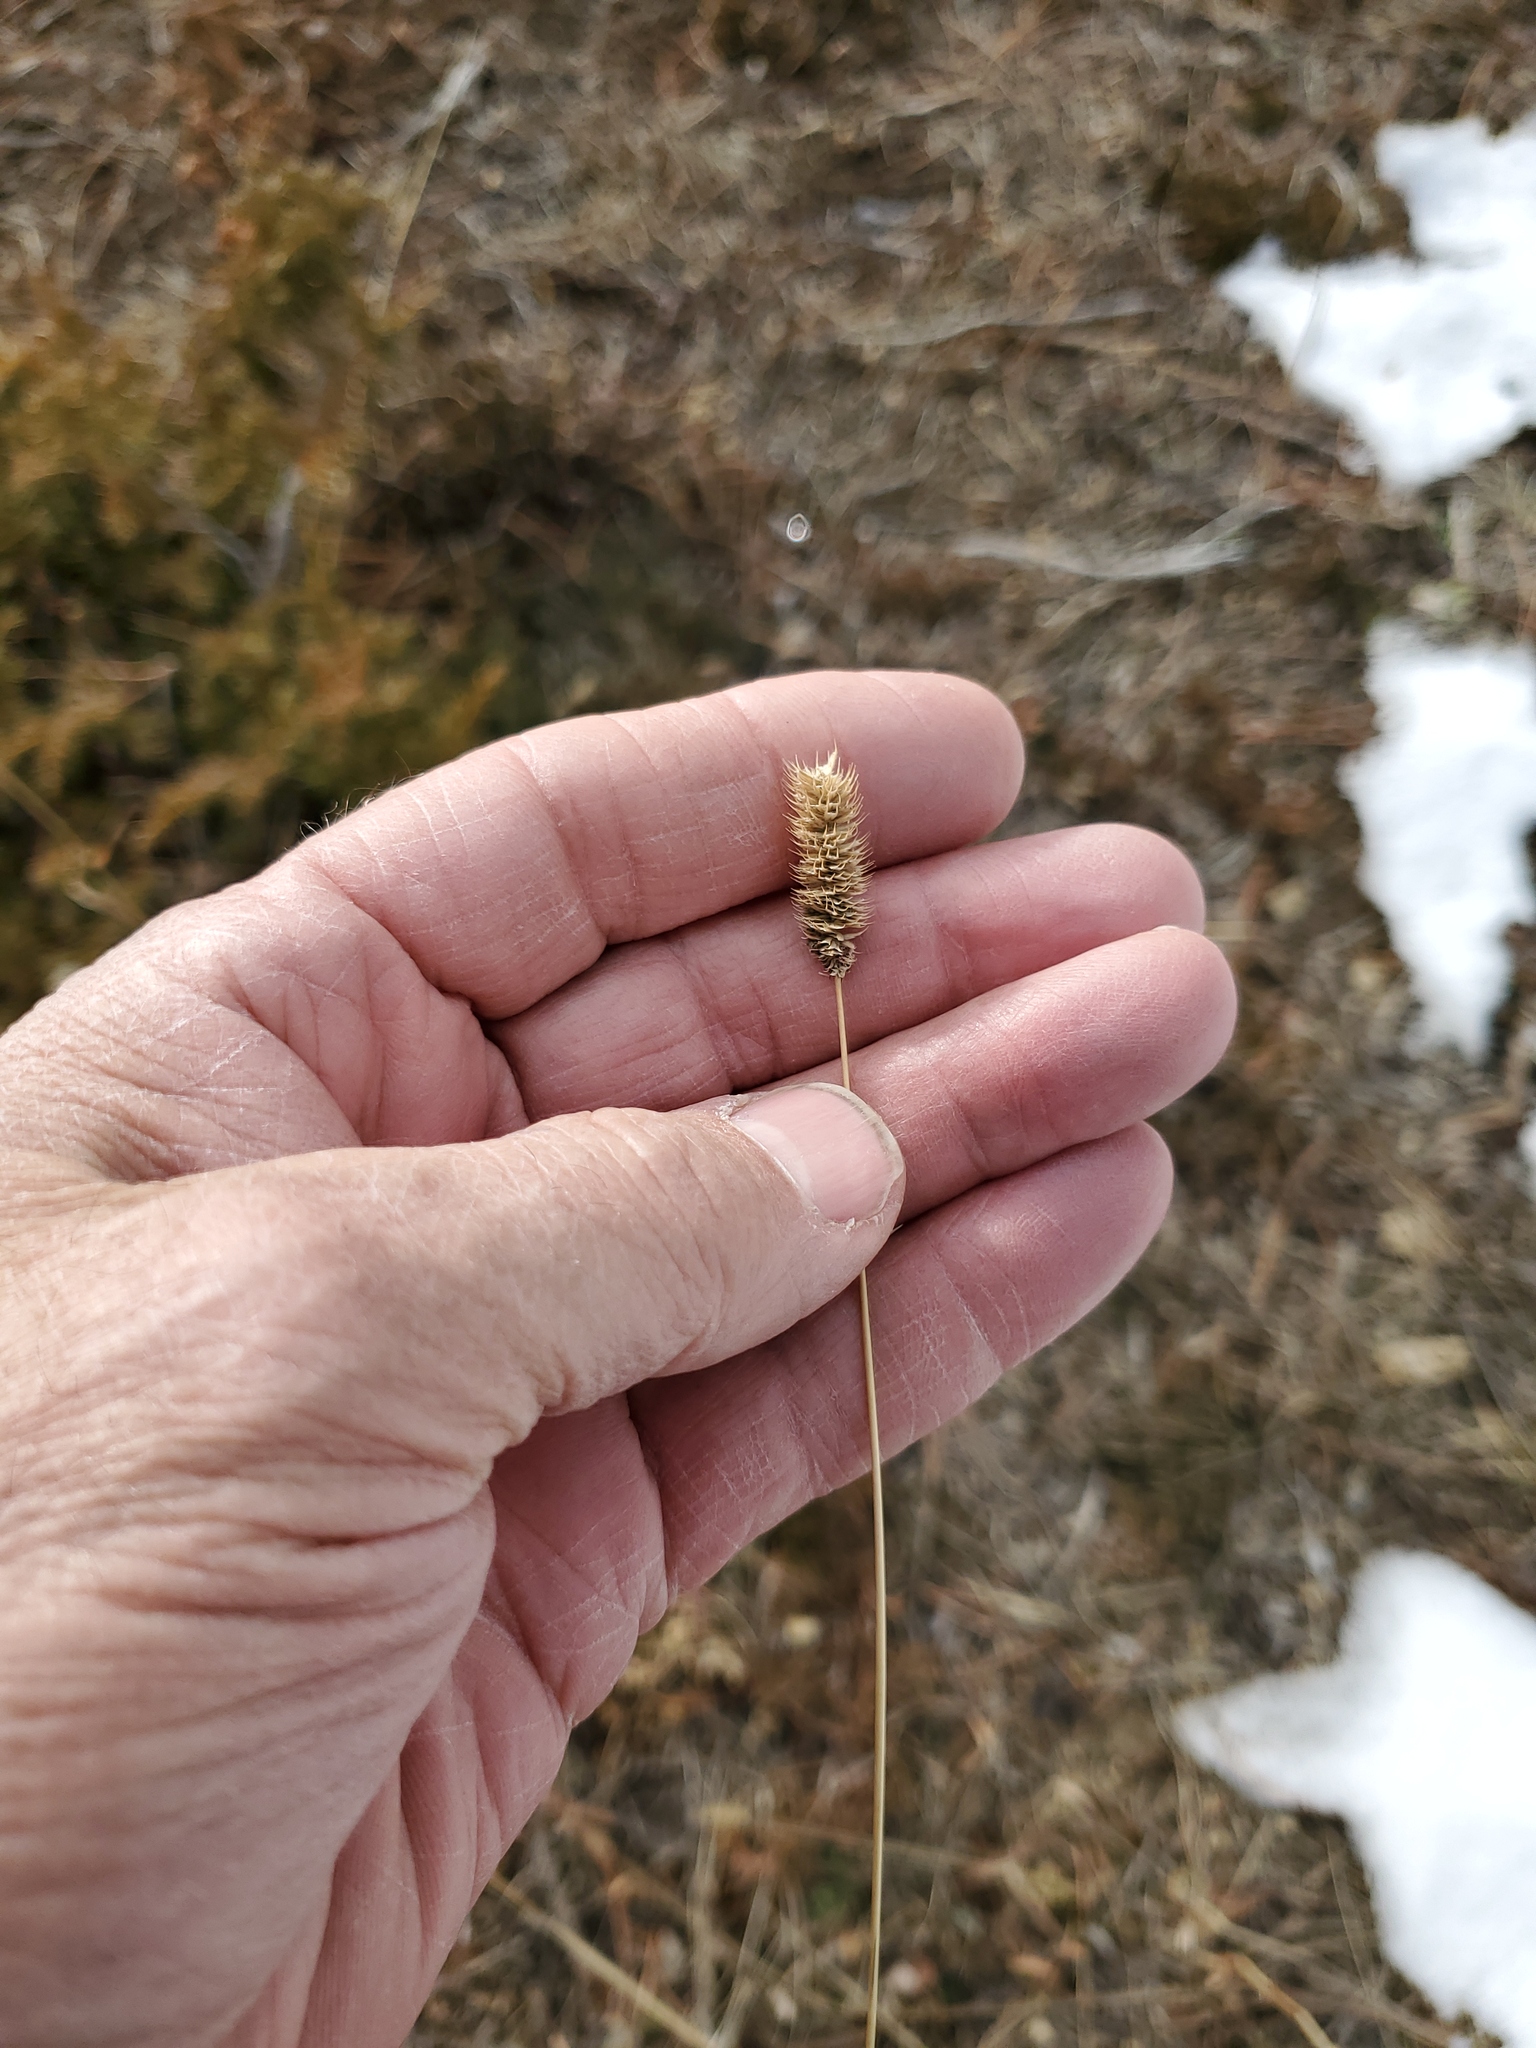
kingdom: Plantae
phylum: Tracheophyta
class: Liliopsida
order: Poales
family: Poaceae
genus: Phleum
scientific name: Phleum pratense
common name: Timothy grass
